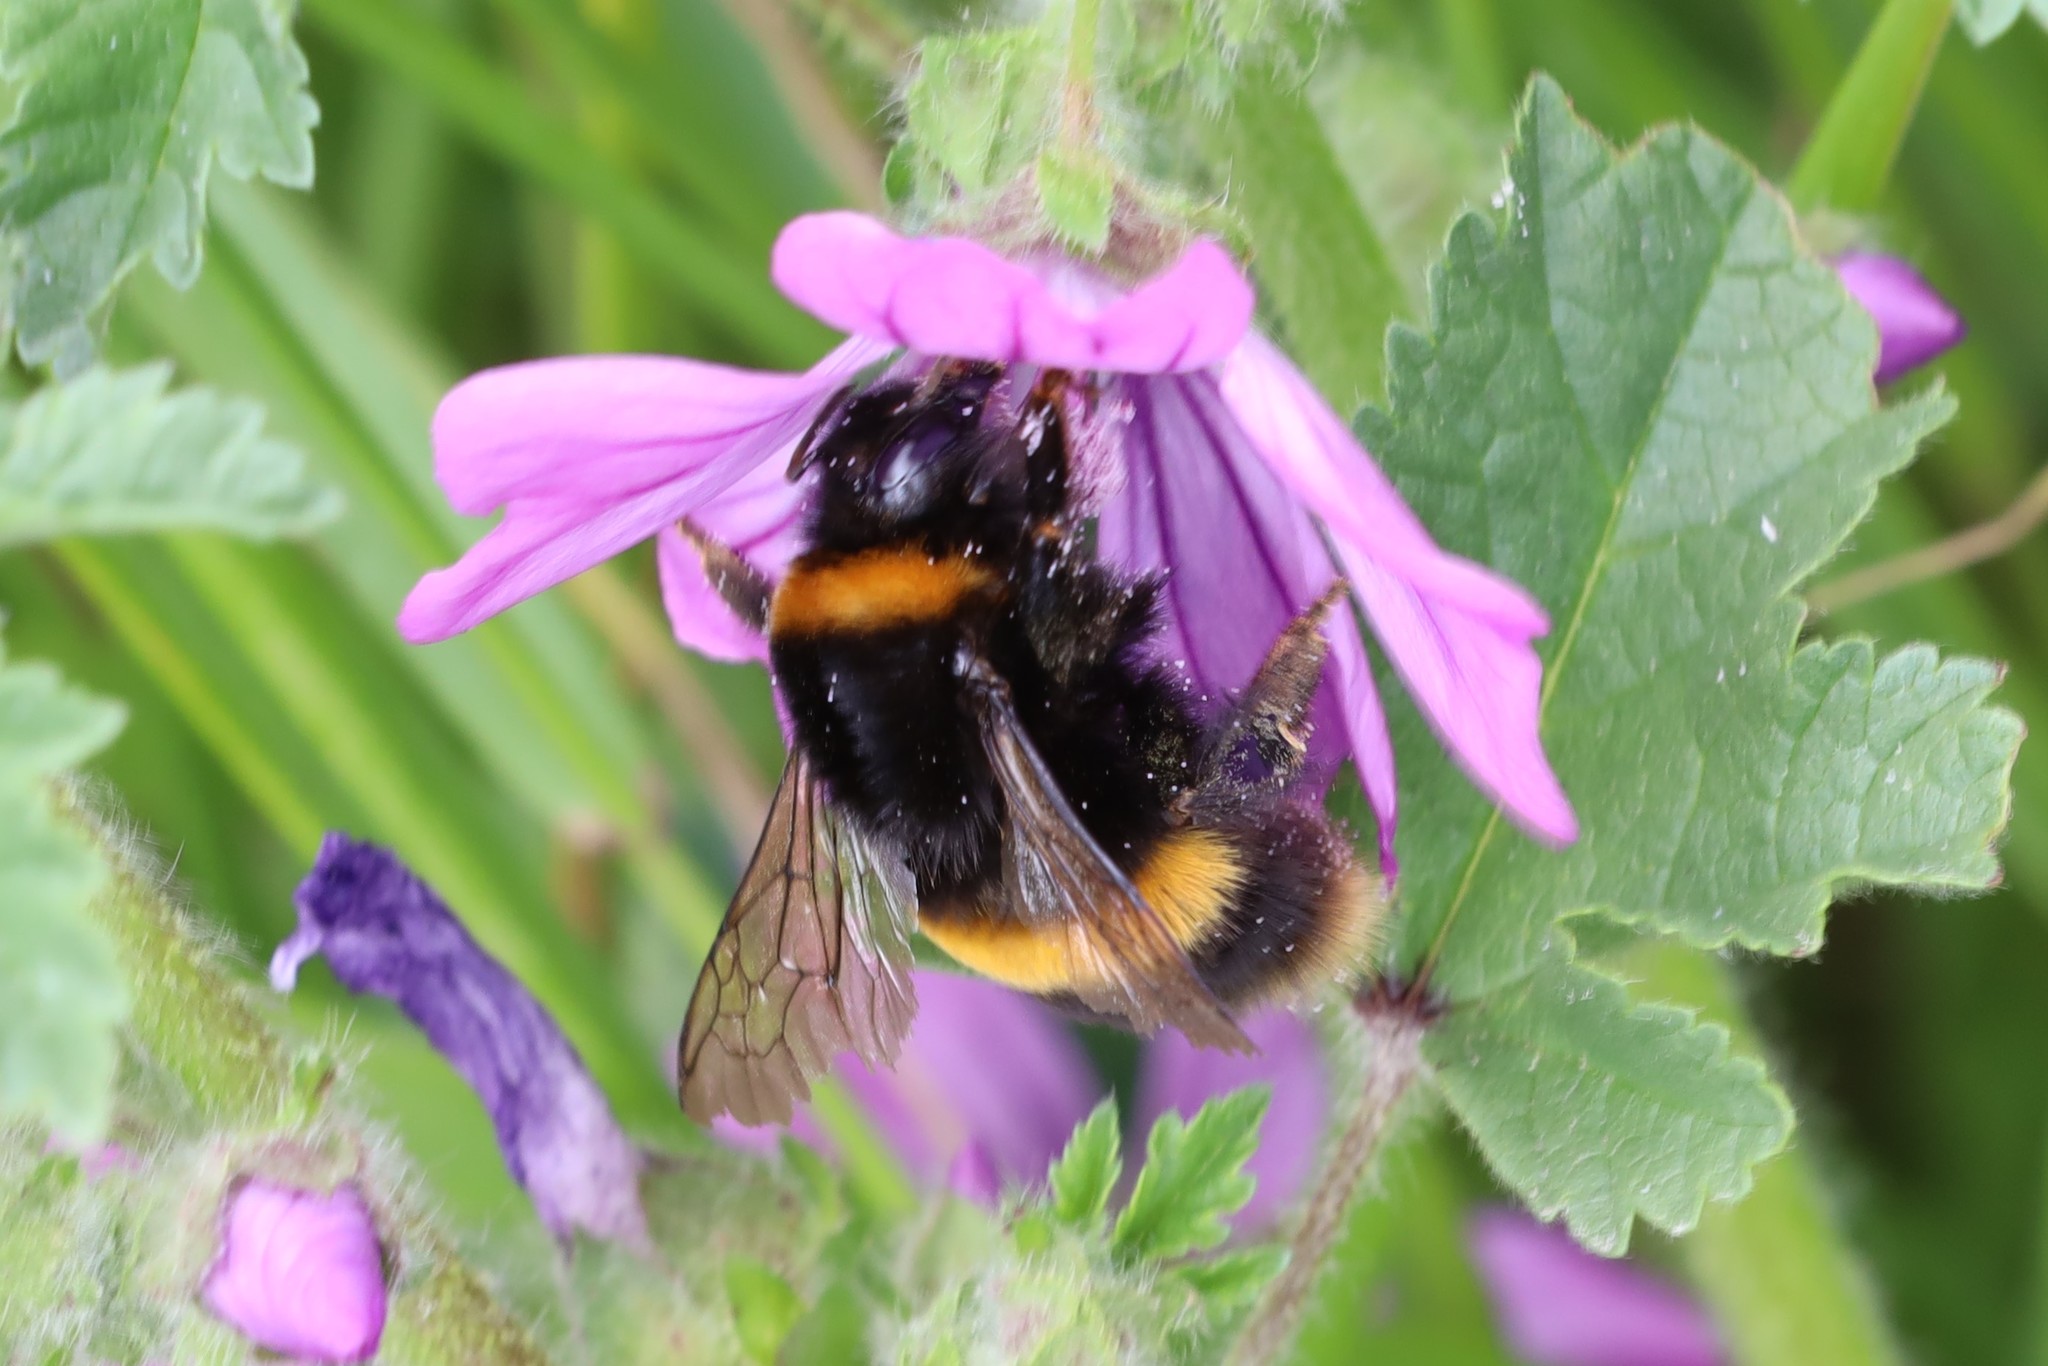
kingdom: Animalia
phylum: Arthropoda
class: Insecta
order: Hymenoptera
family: Apidae
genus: Bombus
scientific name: Bombus terrestris
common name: Buff-tailed bumblebee
